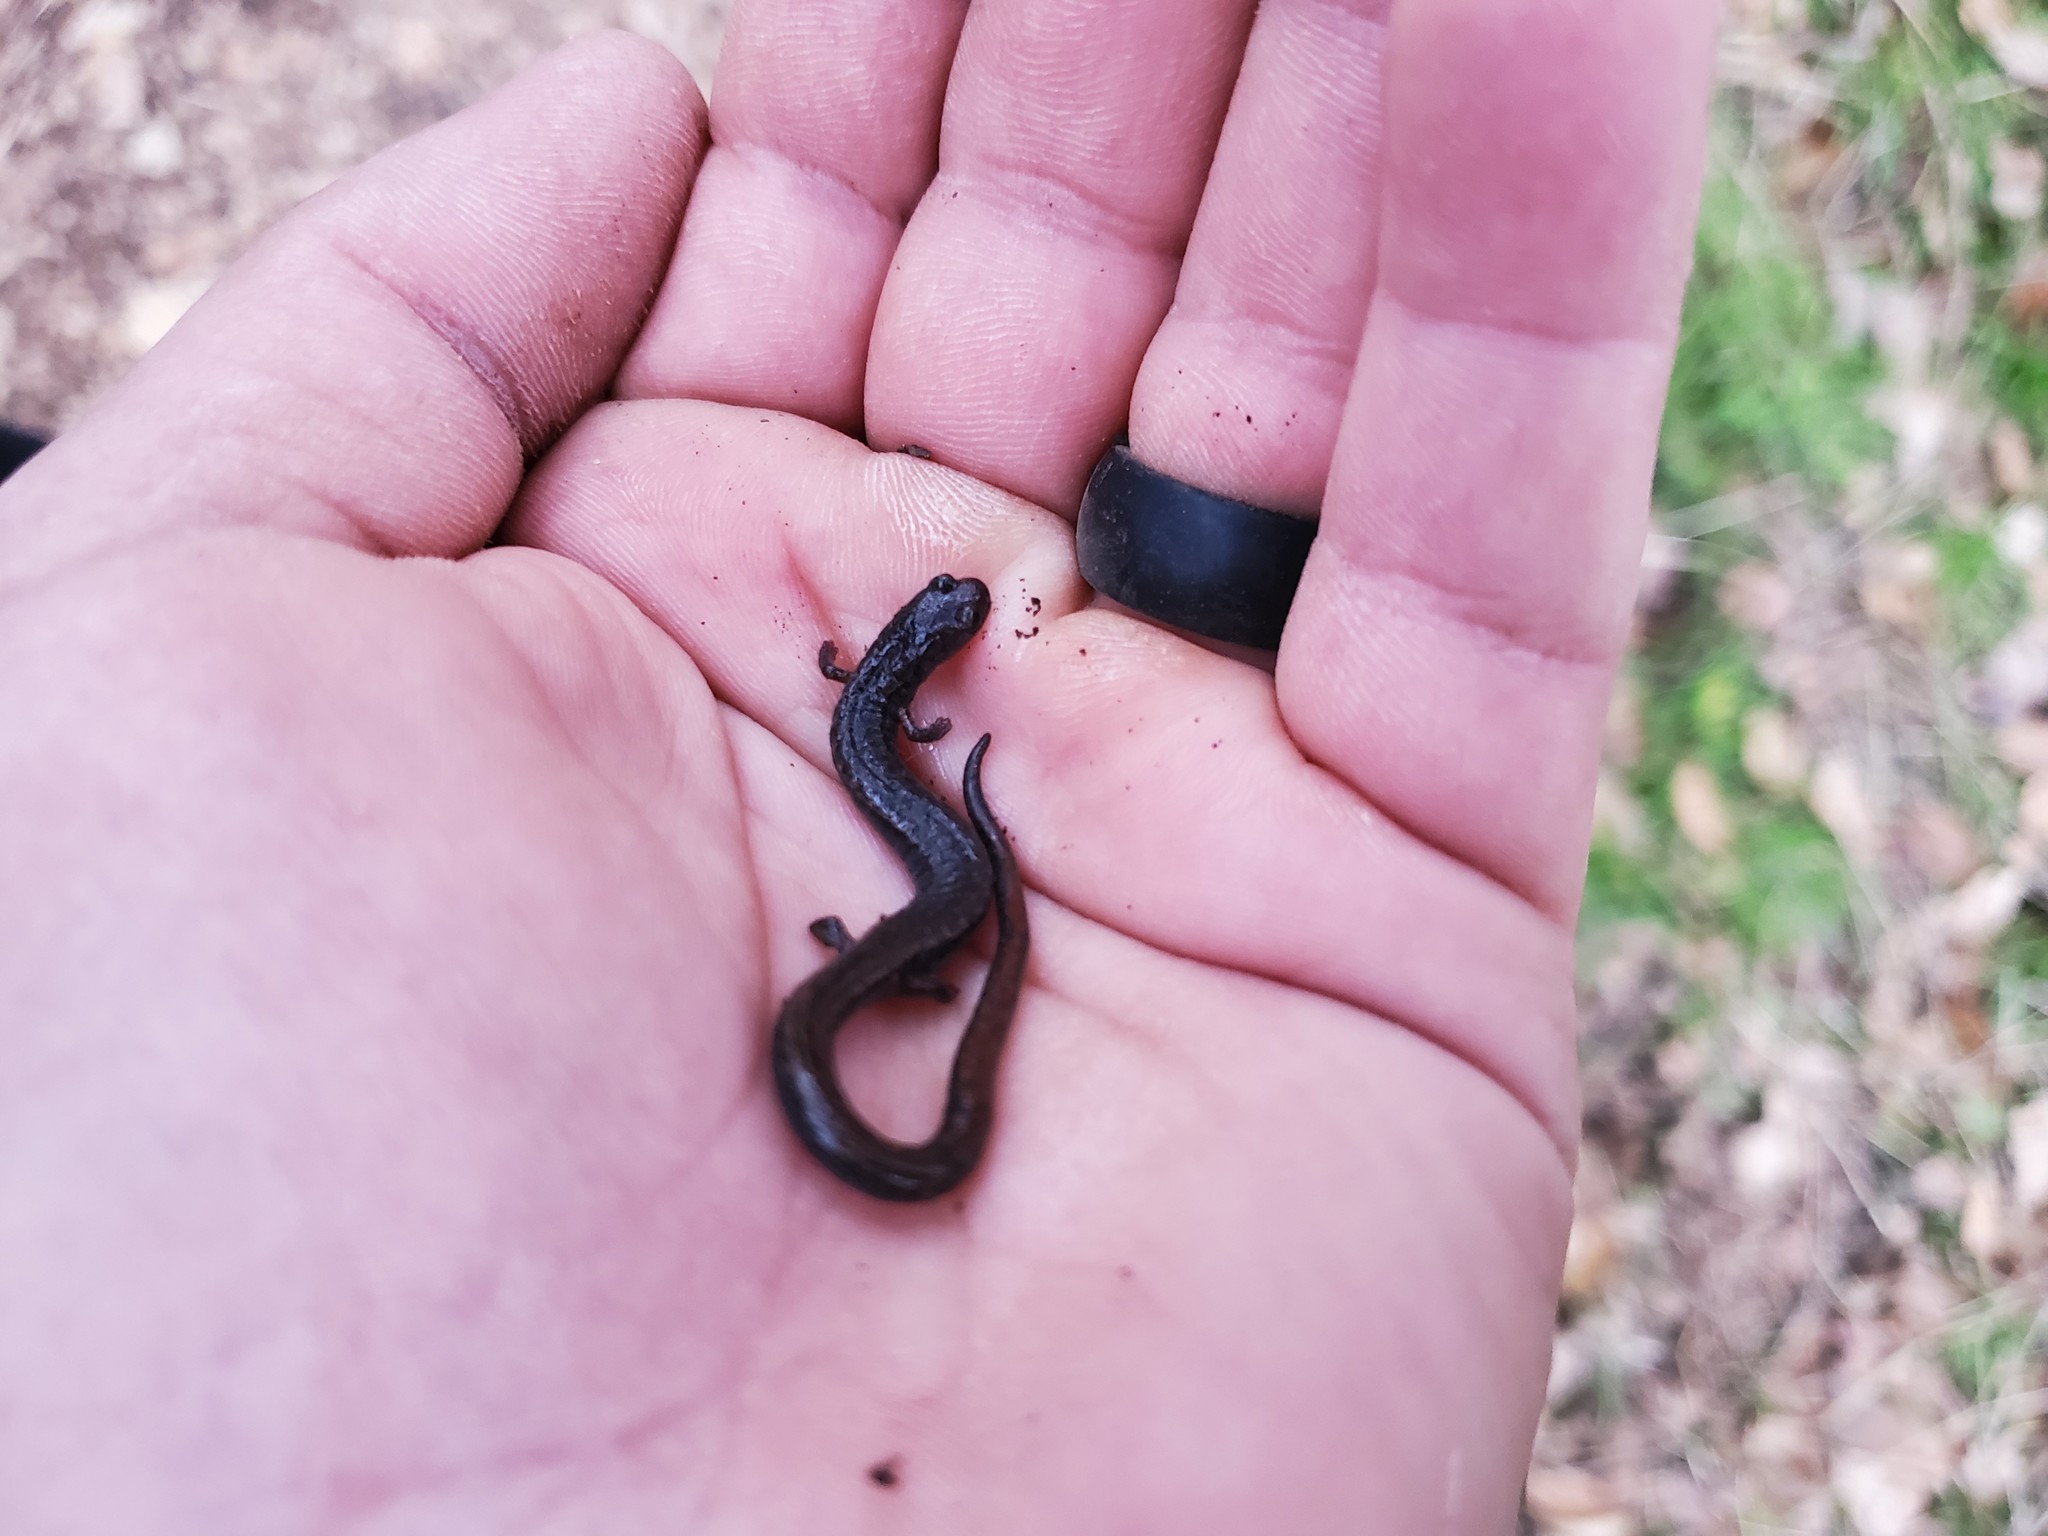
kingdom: Animalia
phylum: Chordata
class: Amphibia
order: Caudata
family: Plethodontidae
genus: Batrachoseps
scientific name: Batrachoseps attenuatus
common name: California slender salamander
